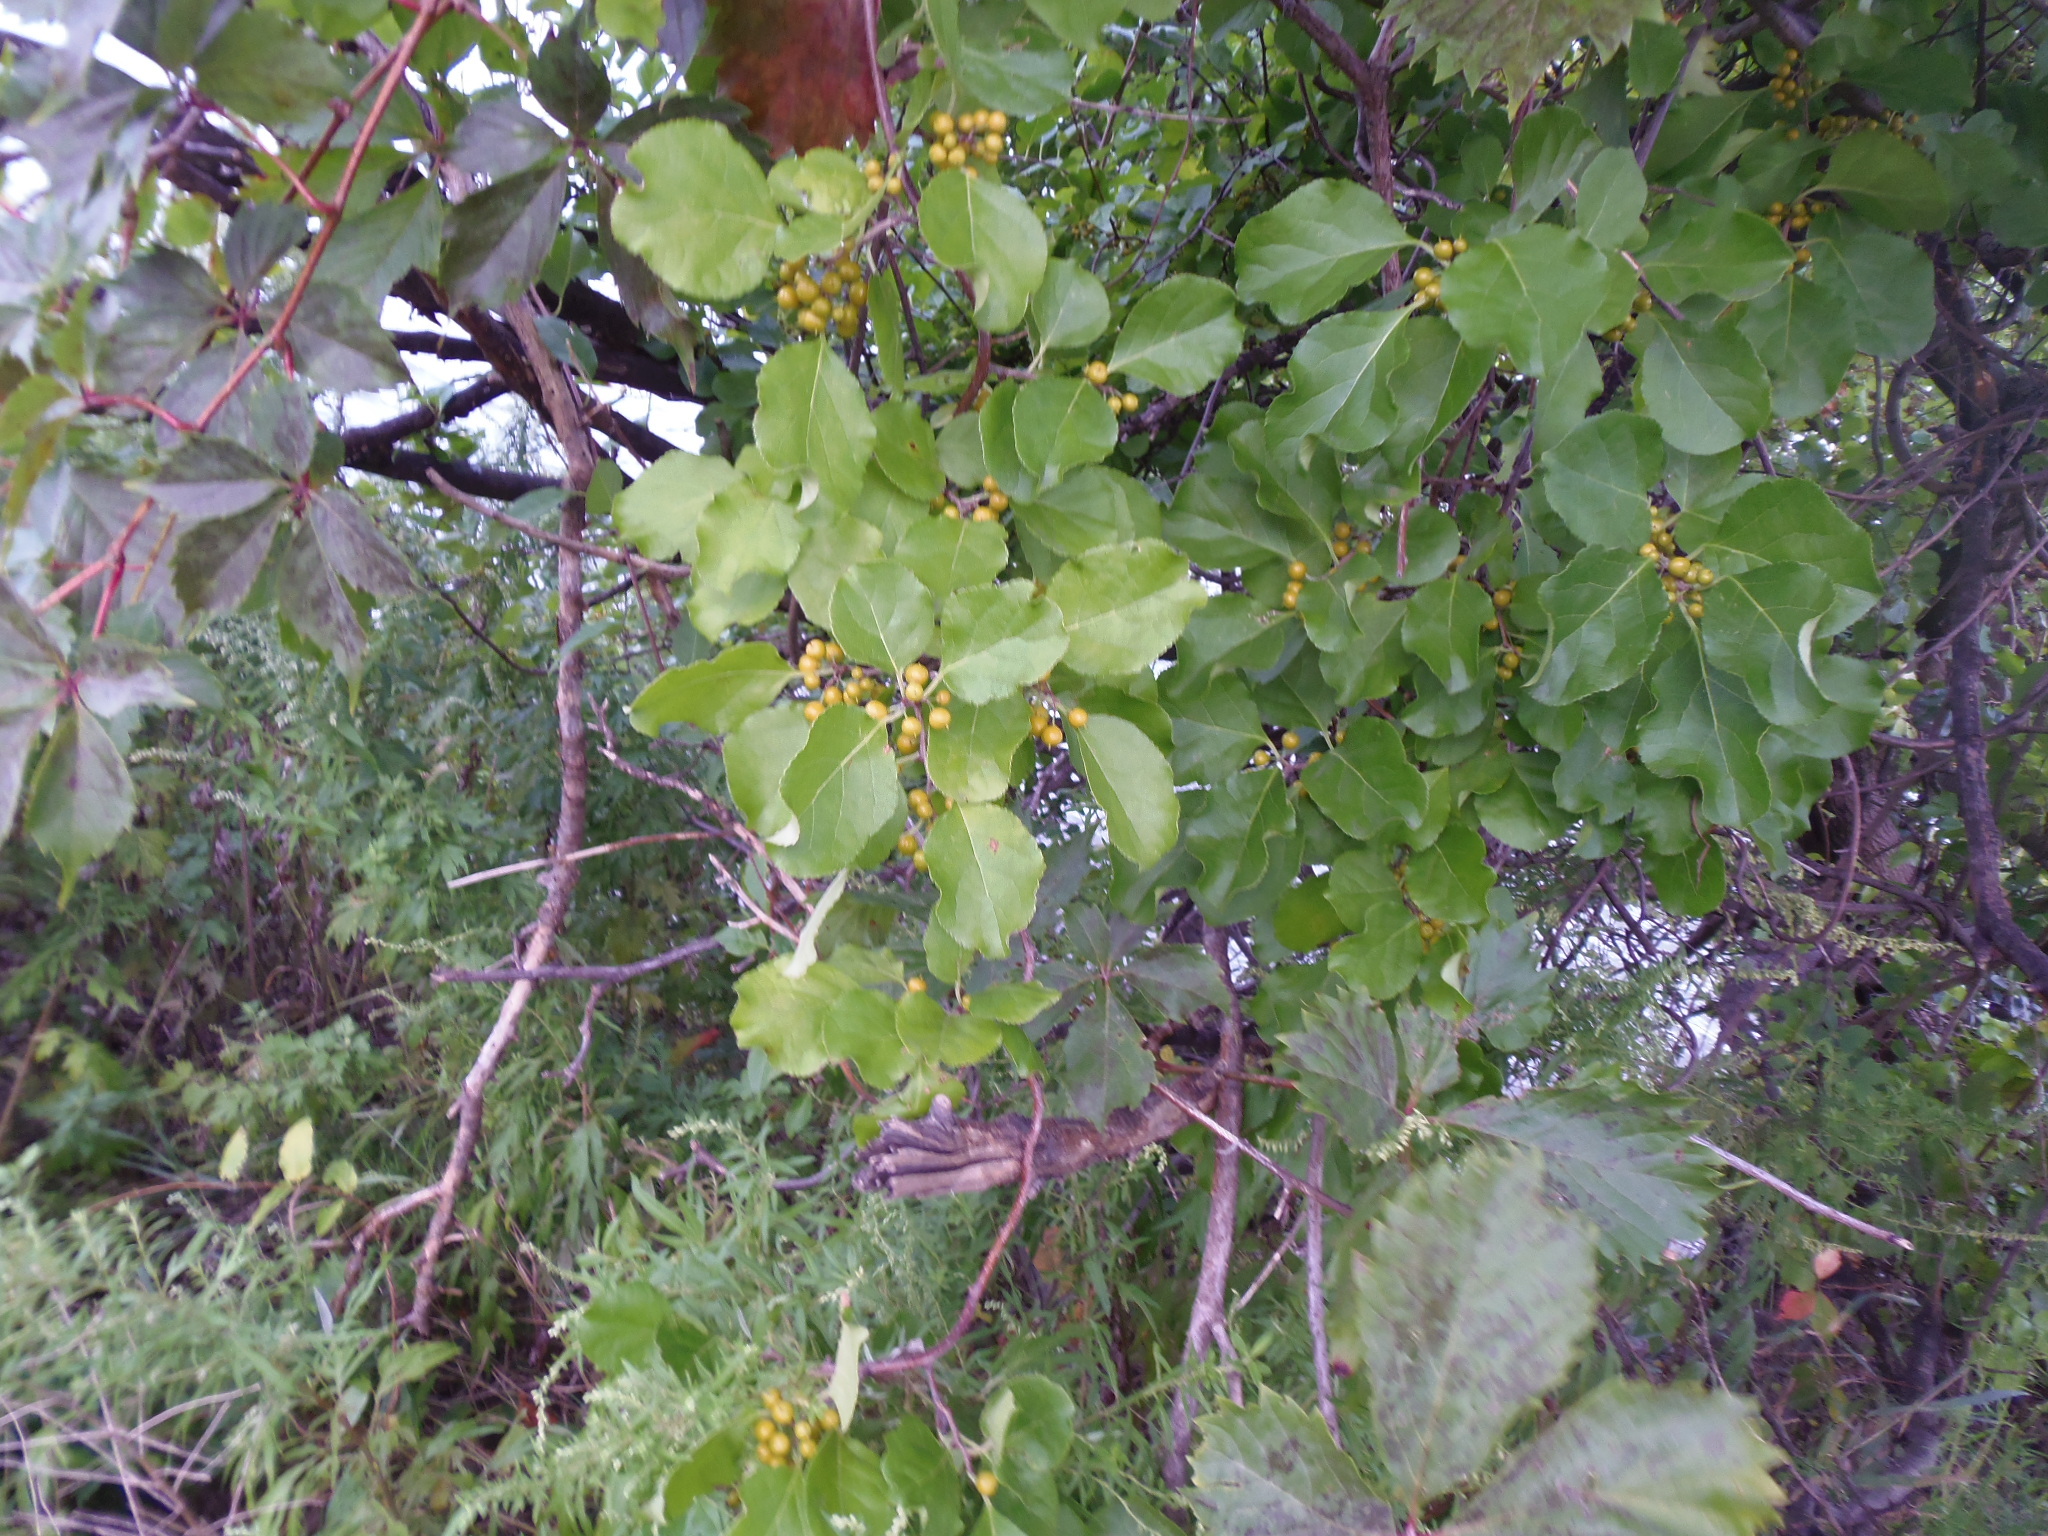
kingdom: Plantae
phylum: Tracheophyta
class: Magnoliopsida
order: Celastrales
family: Celastraceae
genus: Celastrus
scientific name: Celastrus orbiculatus
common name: Oriental bittersweet
